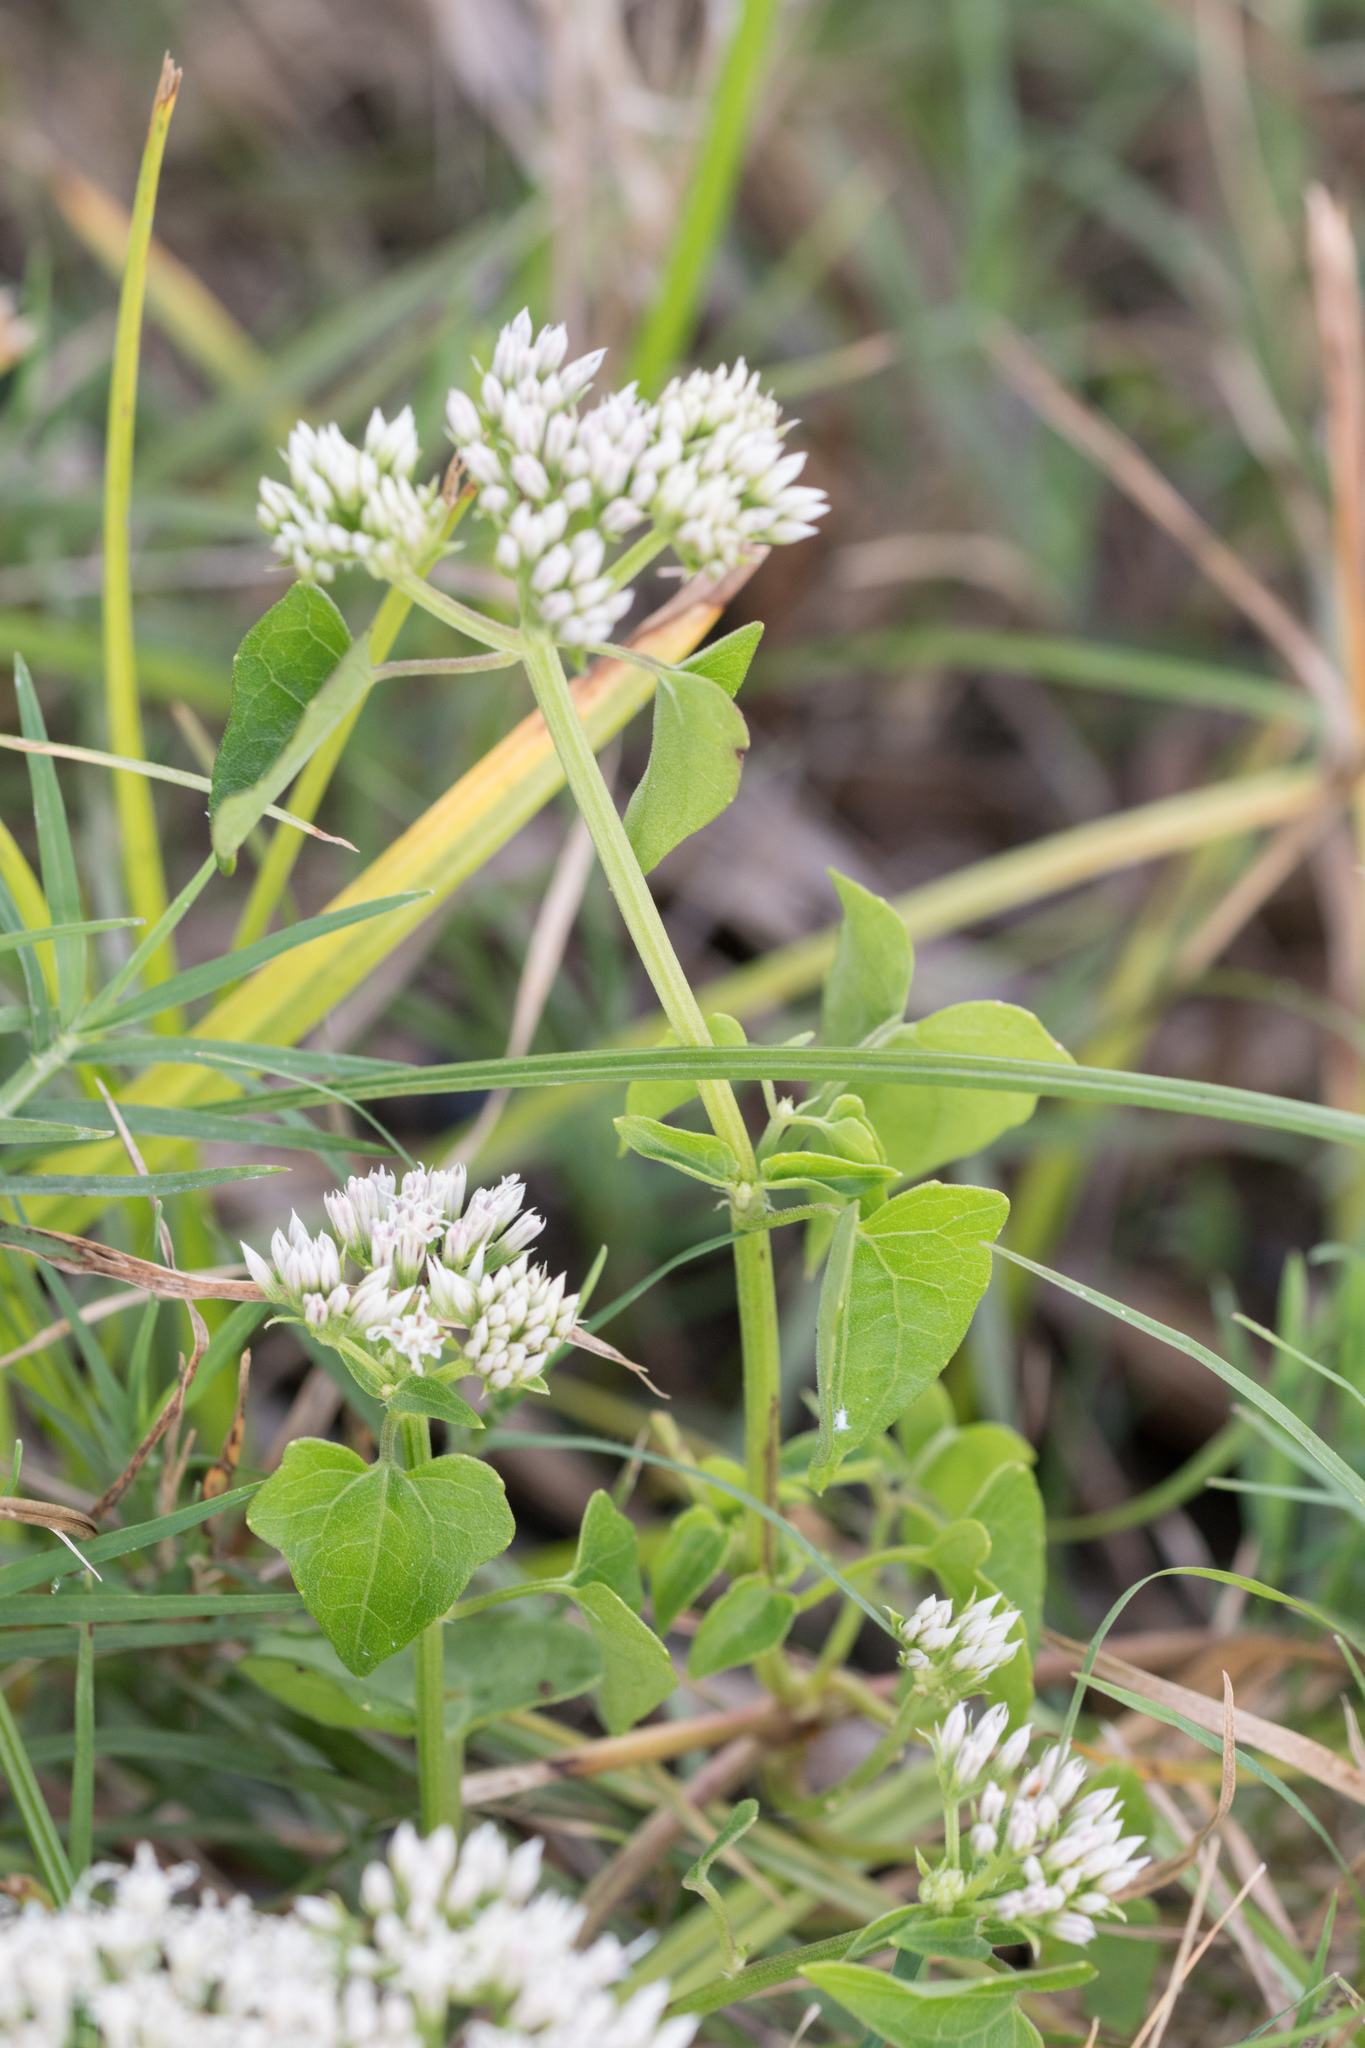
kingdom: Plantae
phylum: Tracheophyta
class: Magnoliopsida
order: Asterales
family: Asteraceae
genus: Mikania
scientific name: Mikania scandens
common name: Climbing hempvine
